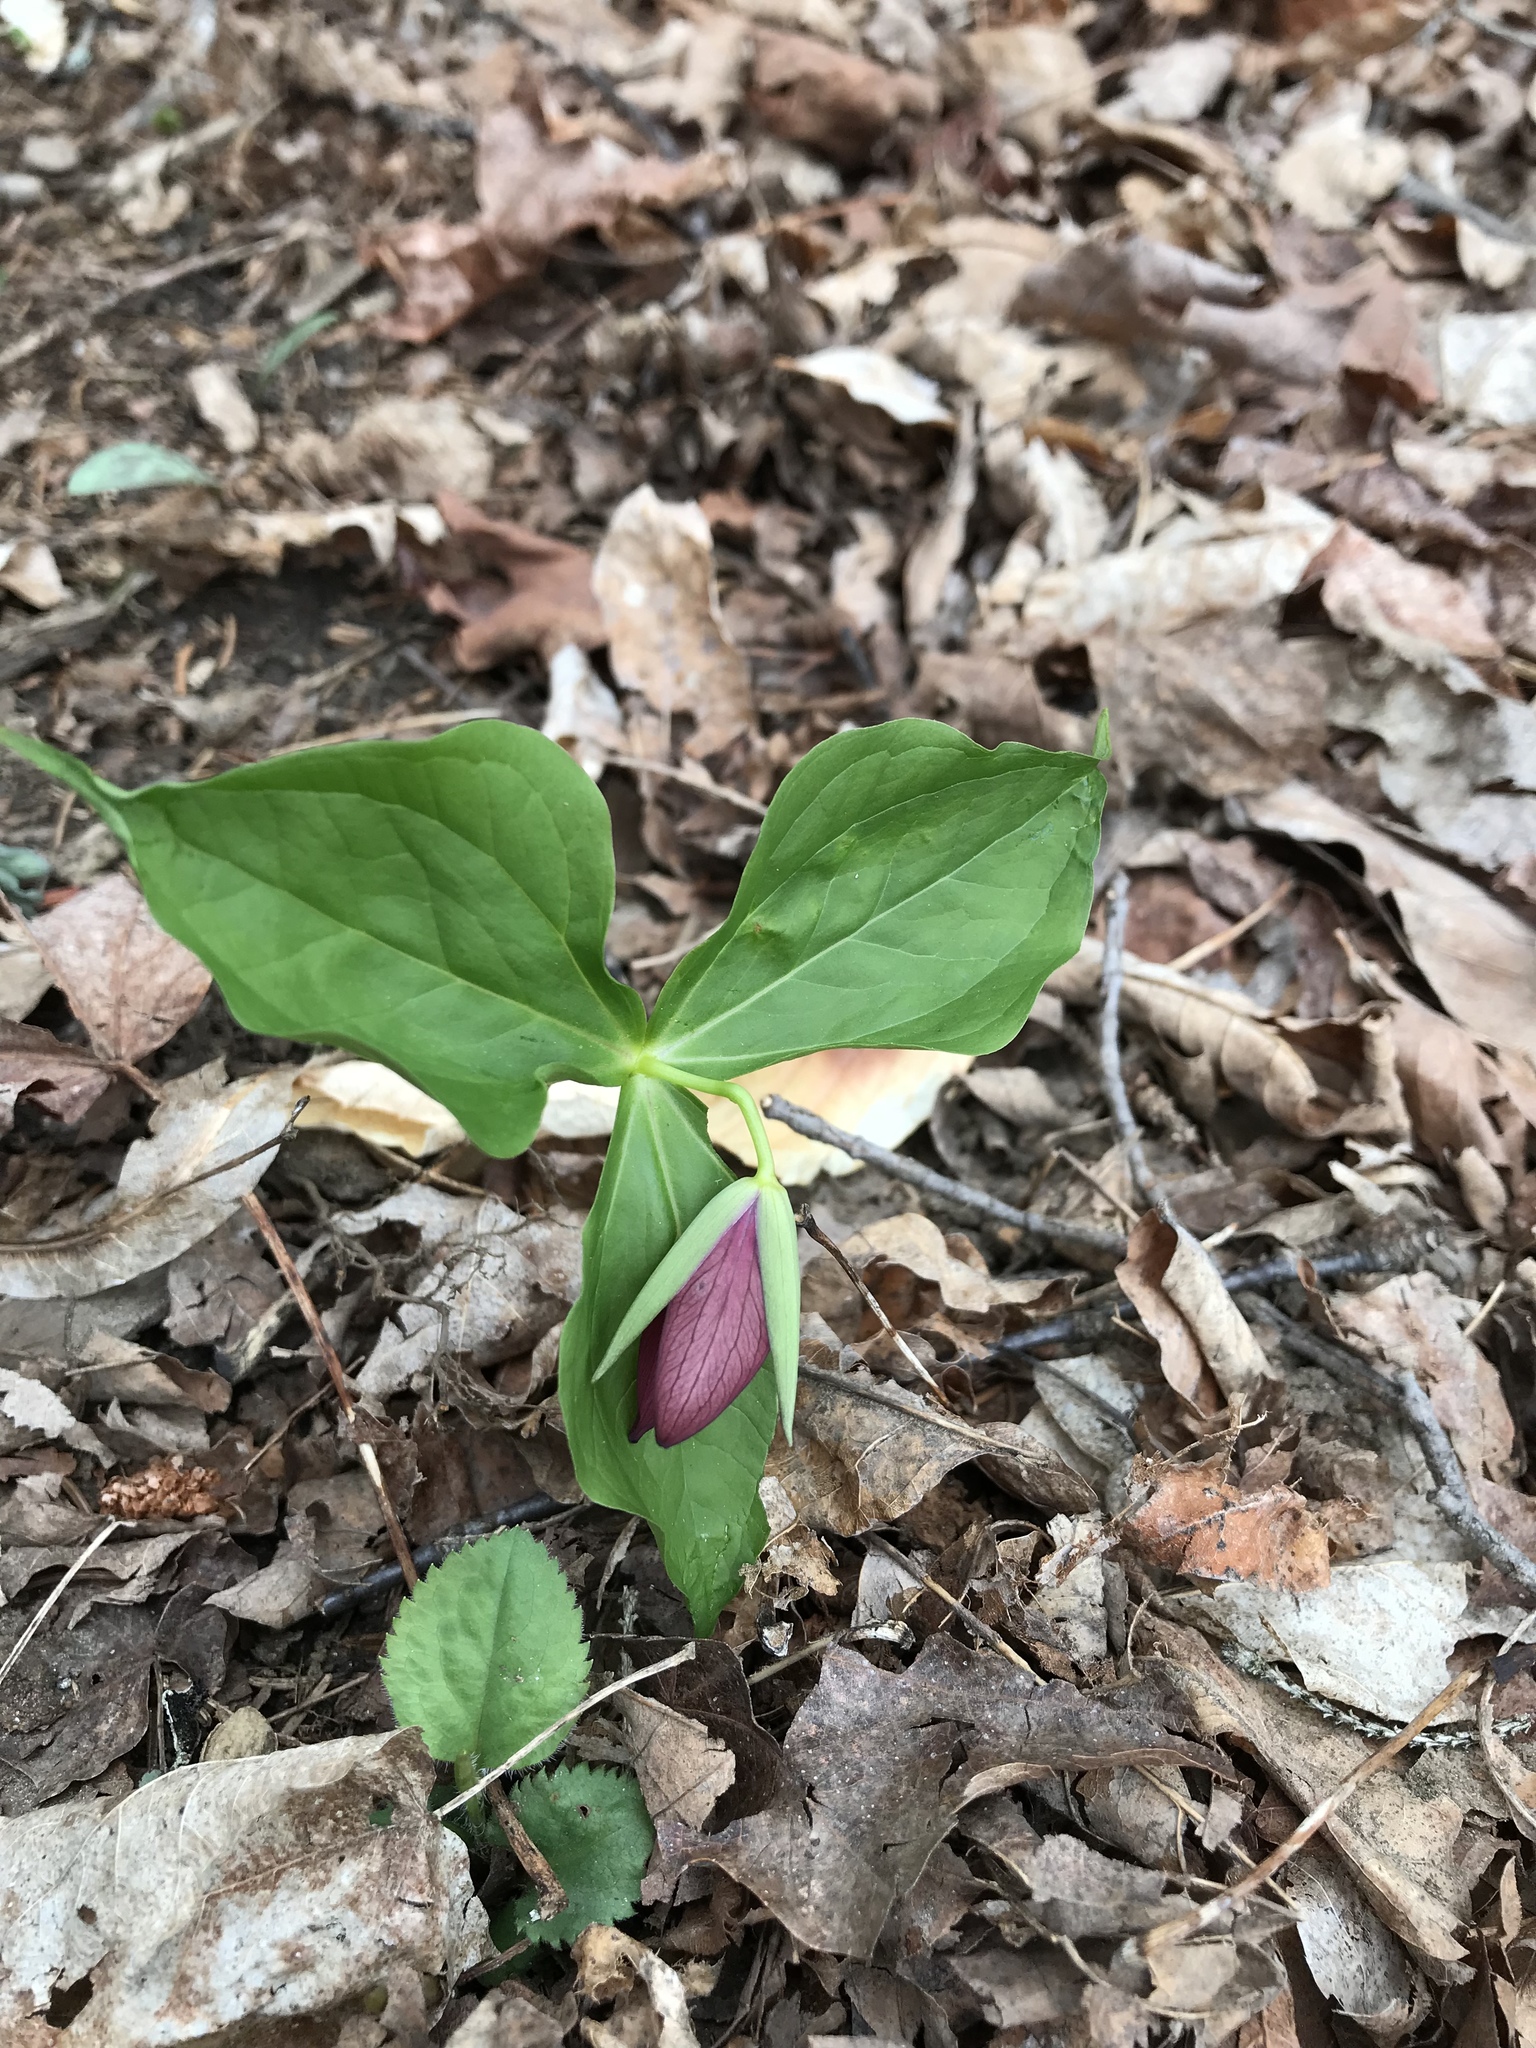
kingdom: Plantae
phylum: Tracheophyta
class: Liliopsida
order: Liliales
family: Melanthiaceae
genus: Trillium
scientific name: Trillium erectum
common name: Purple trillium
